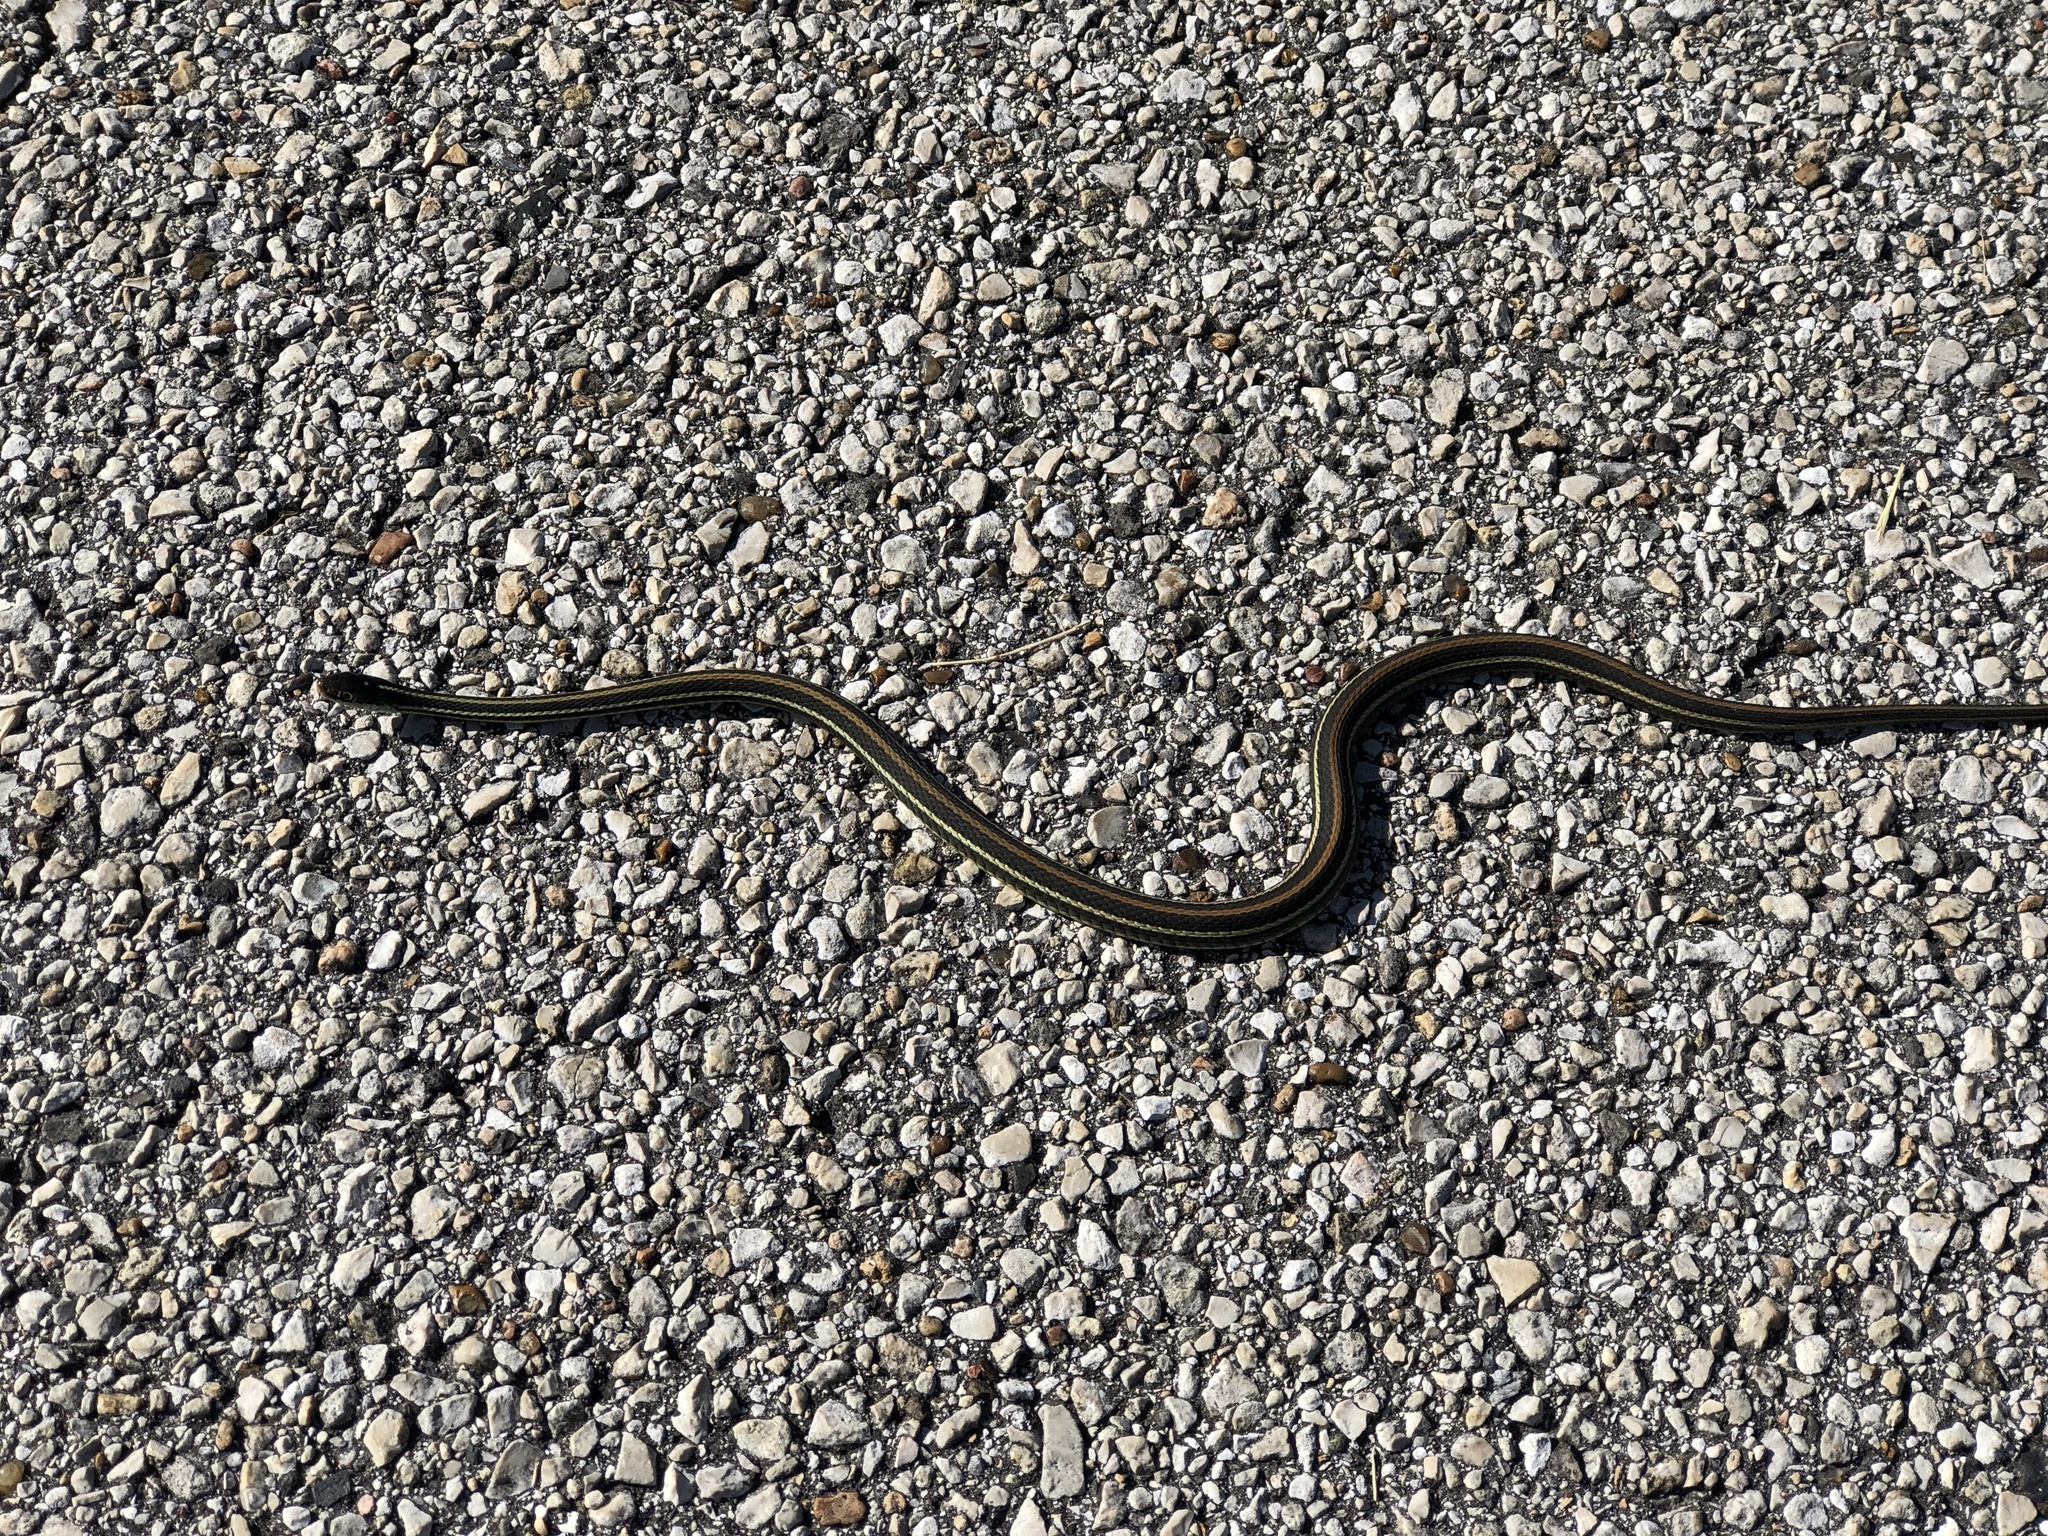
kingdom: Animalia
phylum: Chordata
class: Squamata
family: Colubridae
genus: Thamnophis
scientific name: Thamnophis proximus
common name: Western ribbon snake
